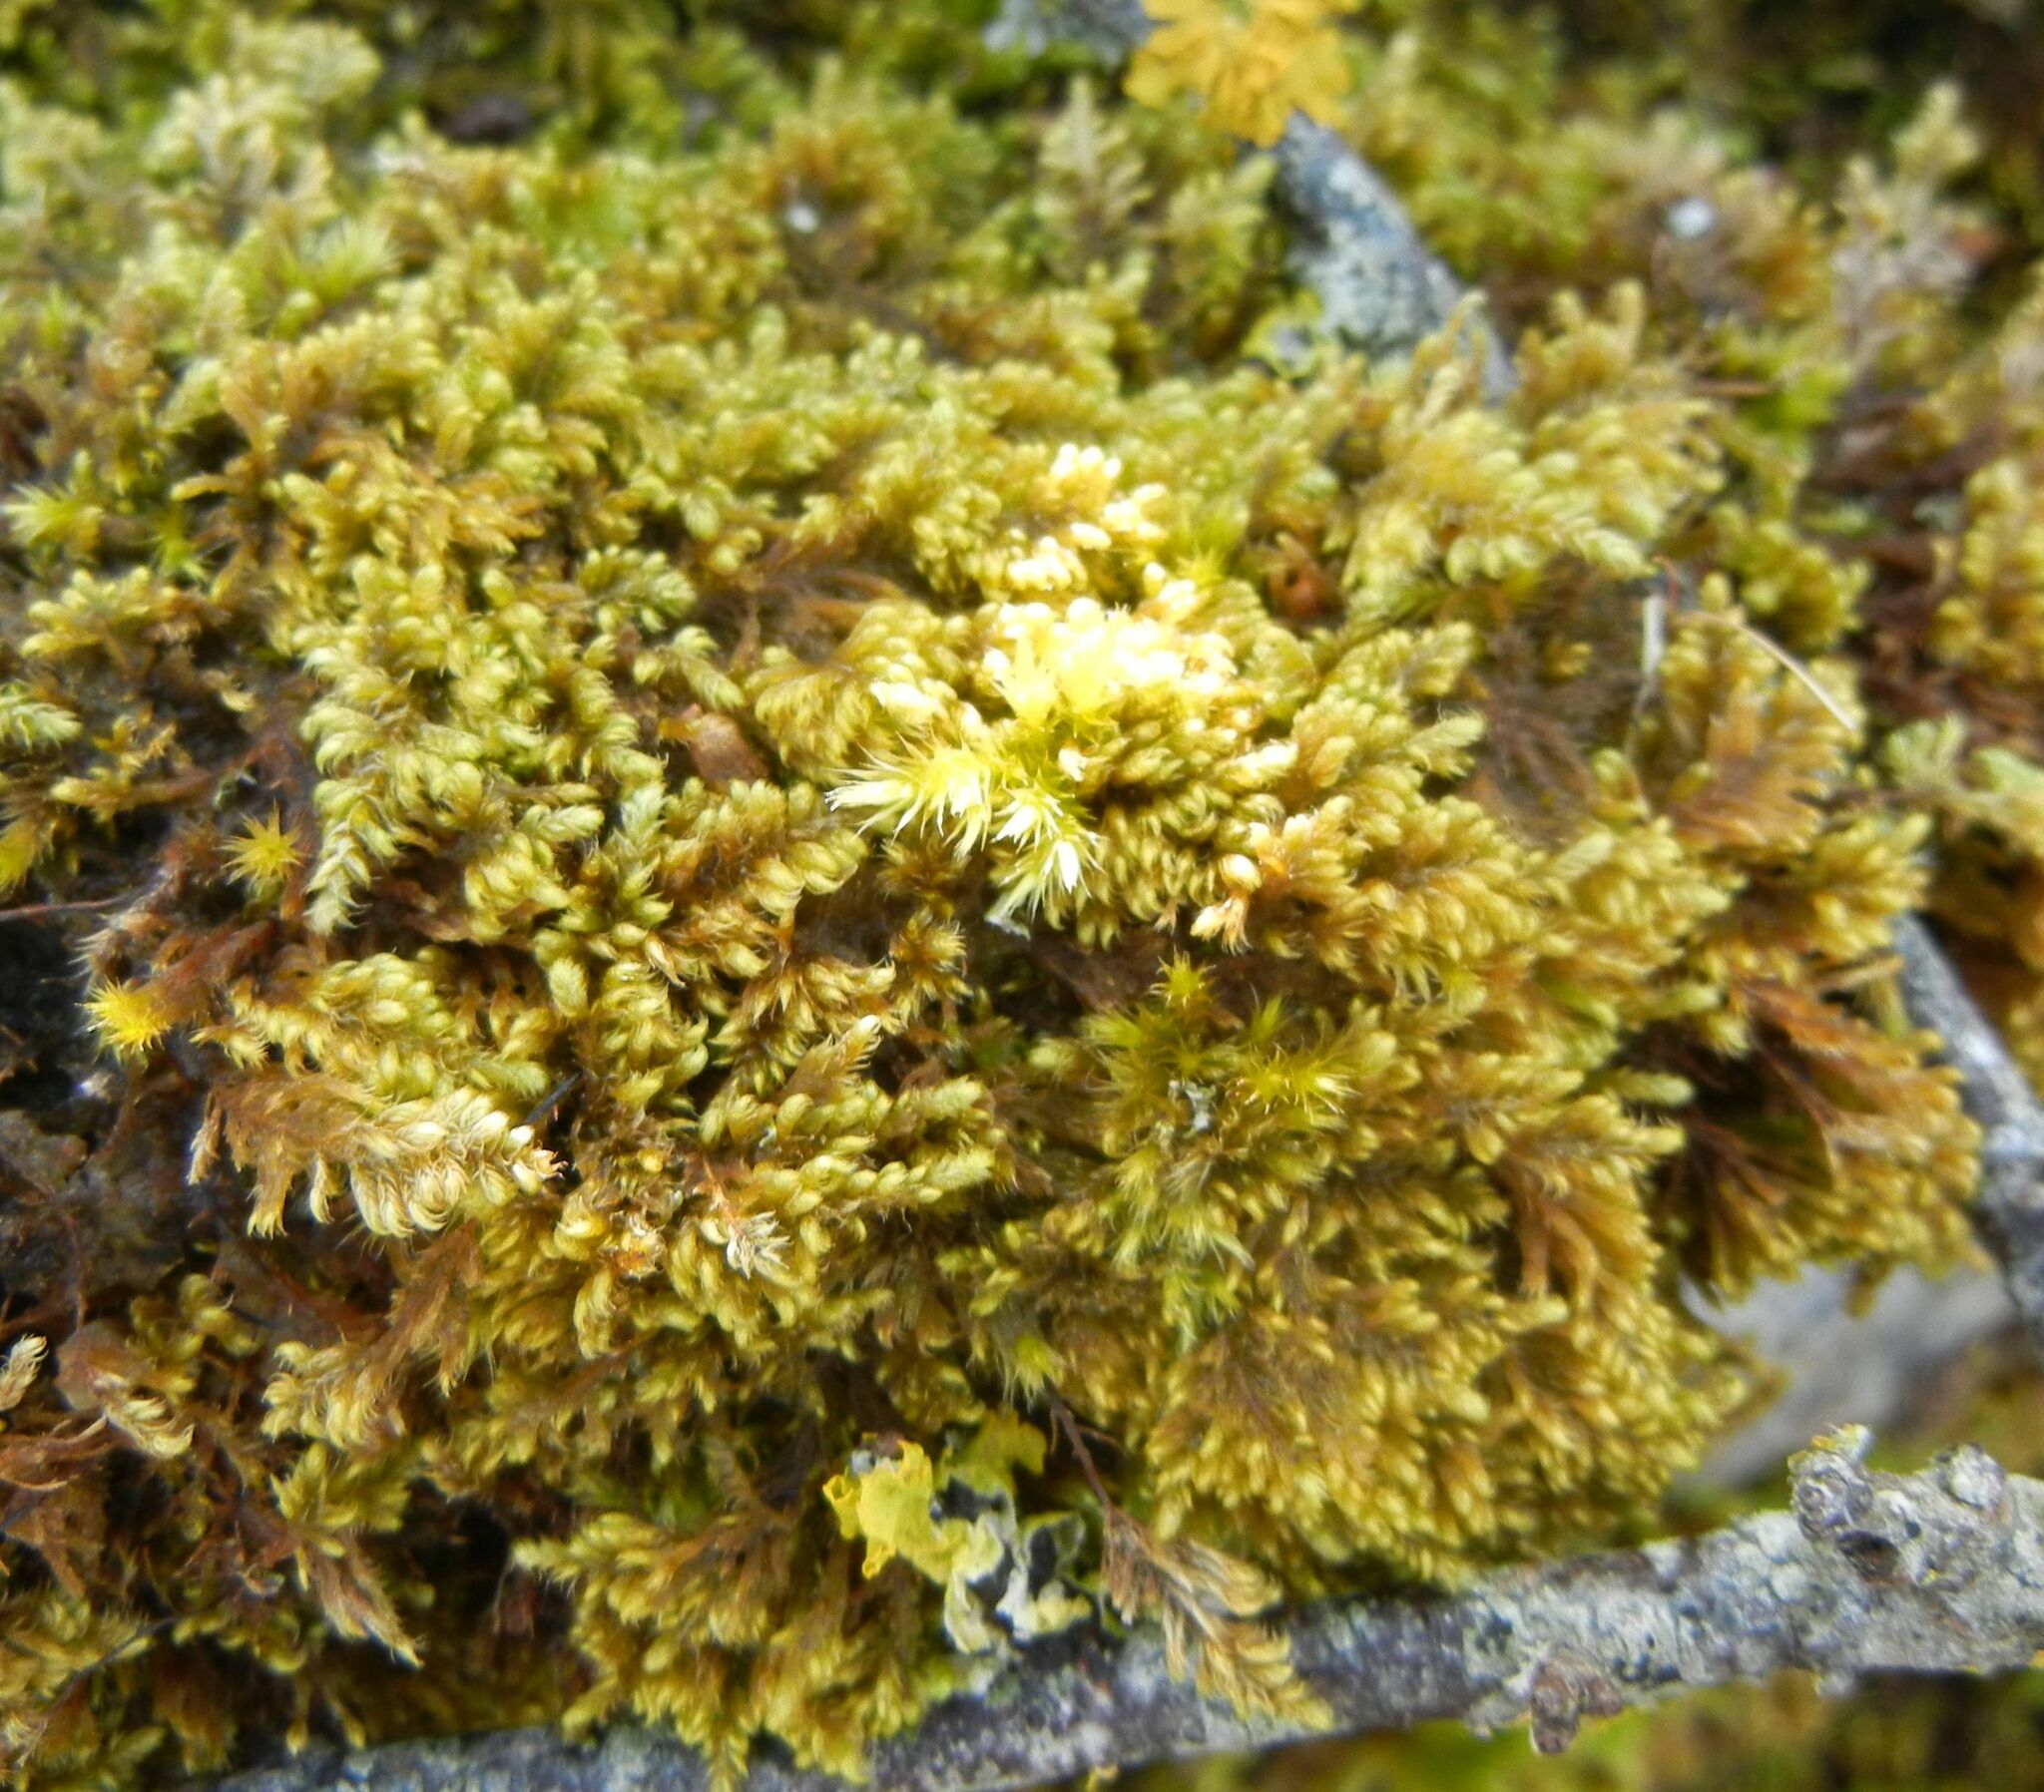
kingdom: Plantae
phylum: Bryophyta
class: Bryopsida
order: Hypnales
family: Myuriaceae
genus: Ctenidium
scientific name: Ctenidium molluscum
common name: Chalk comb-moss
